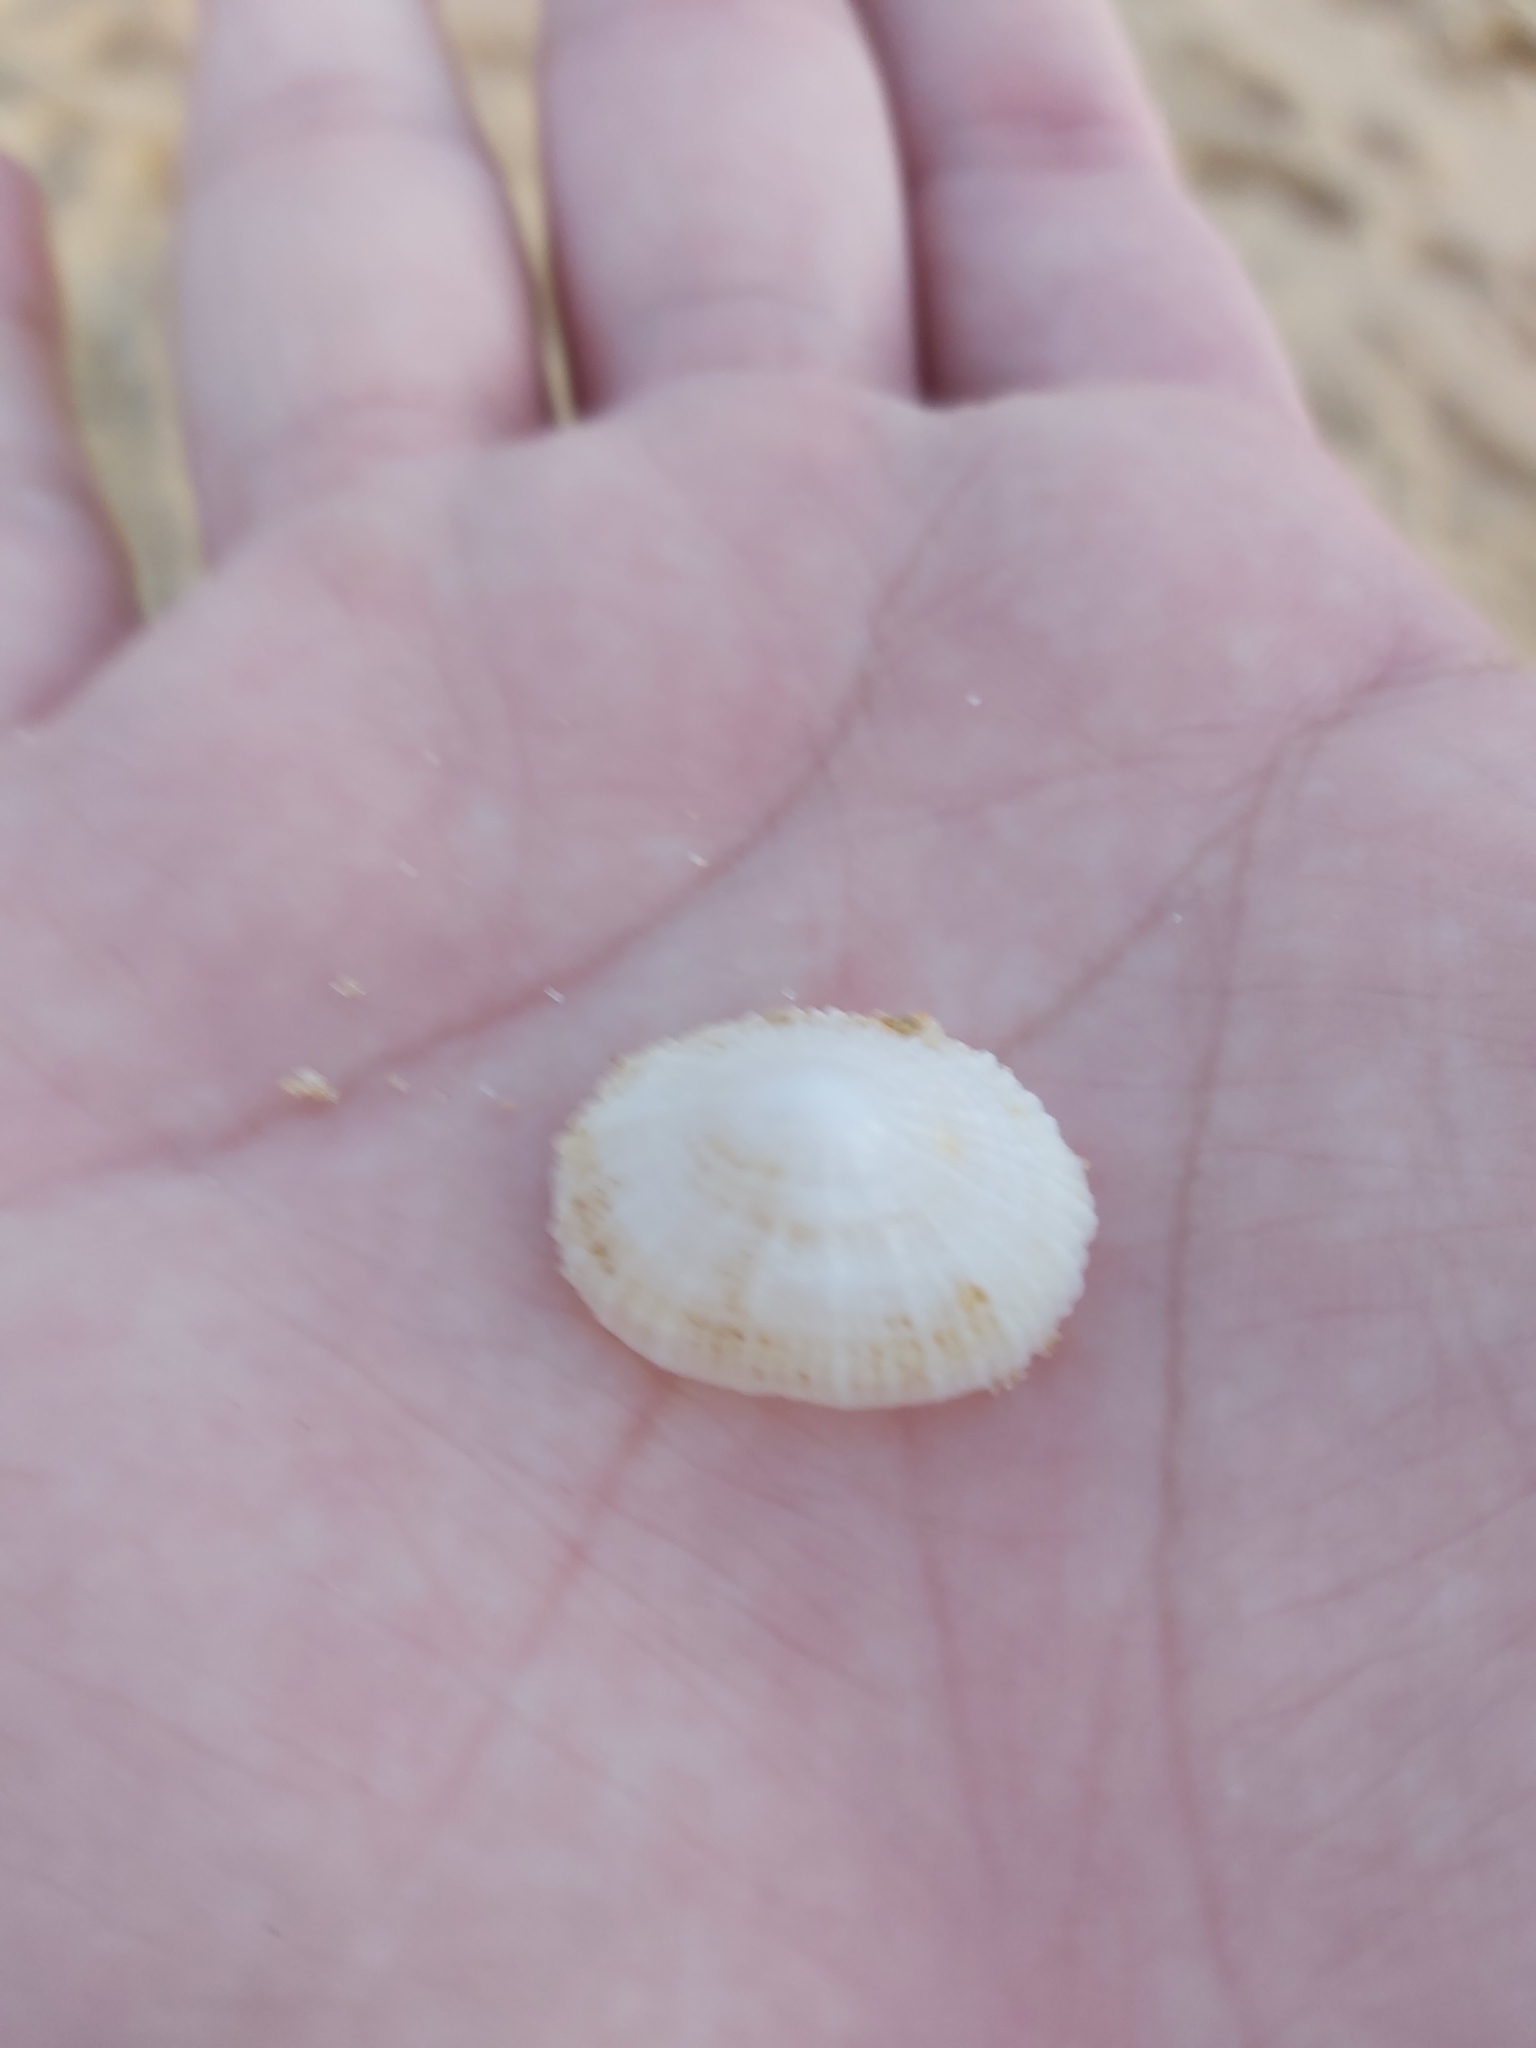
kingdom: Animalia
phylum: Mollusca
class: Gastropoda
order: Lepetellida
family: Fissurellidae
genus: Montfortula
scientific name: Montfortula rugosa
